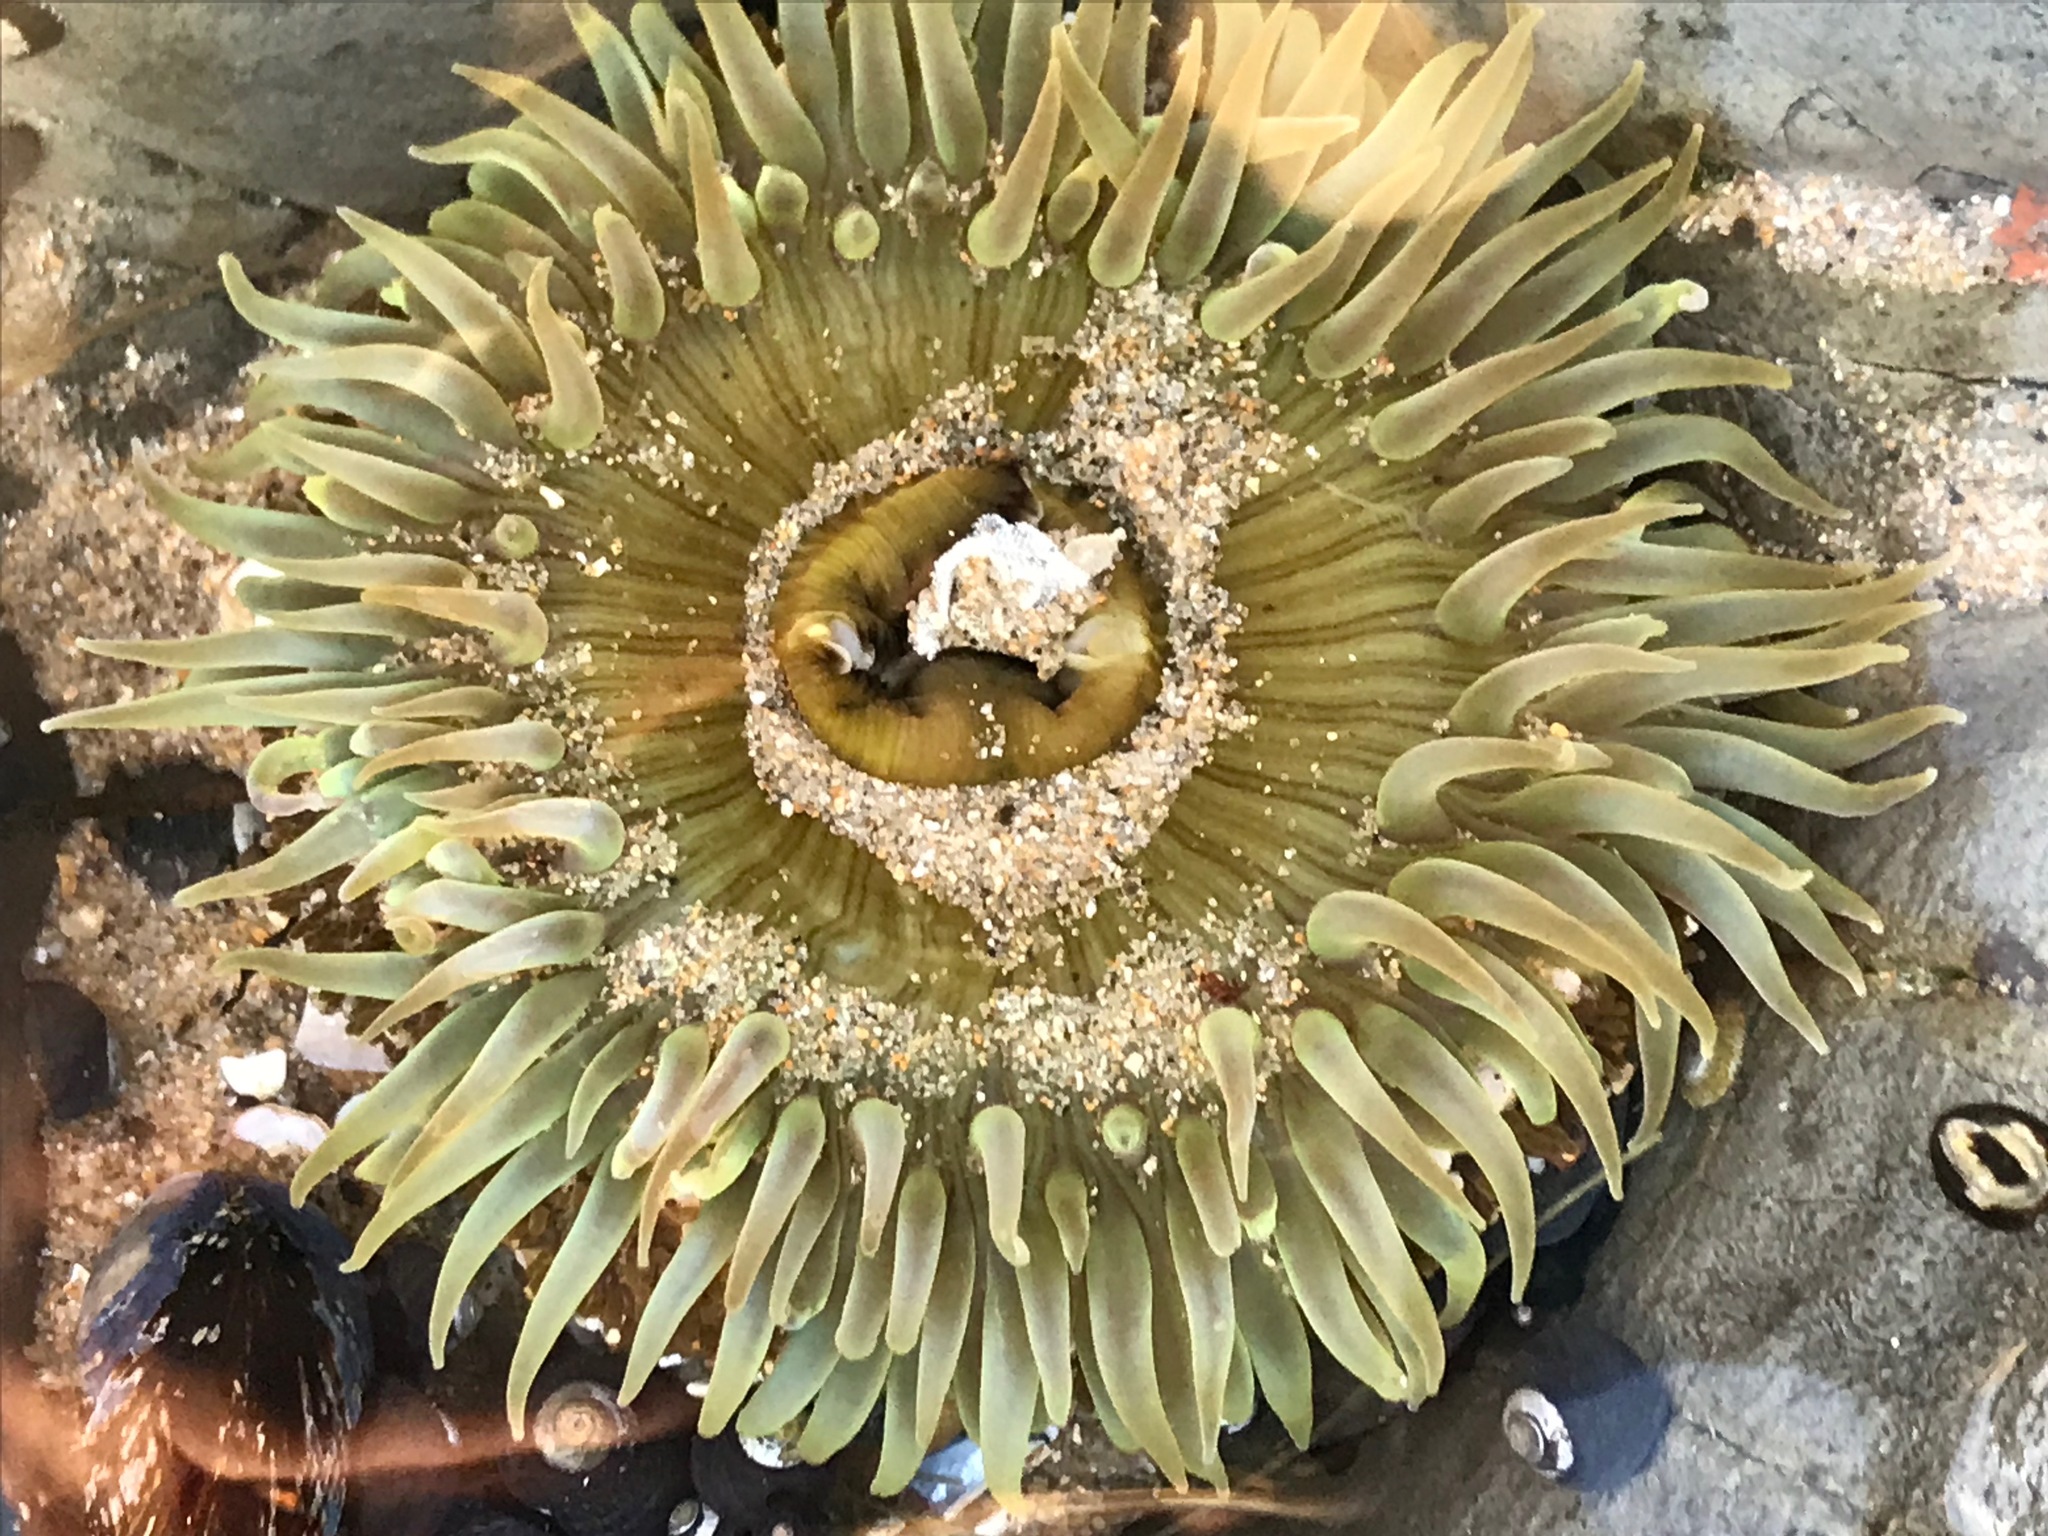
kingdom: Animalia
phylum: Cnidaria
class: Anthozoa
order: Actiniaria
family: Actiniidae
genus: Anthopleura
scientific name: Anthopleura sola
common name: Sun anemone
